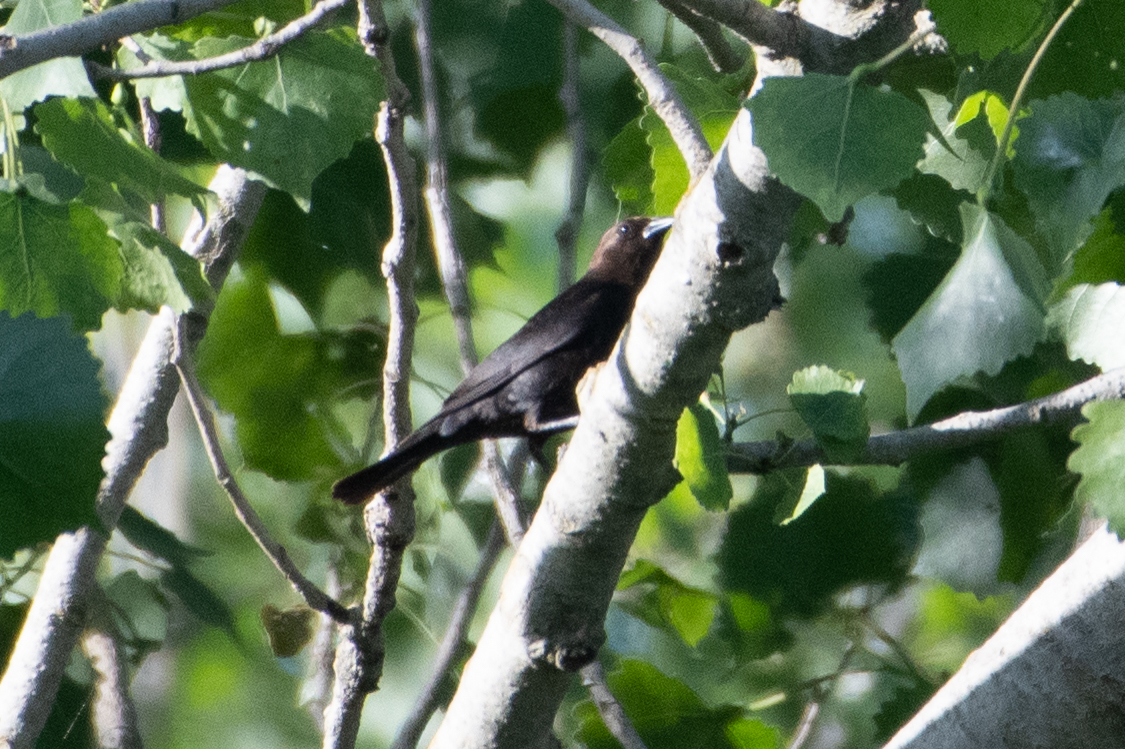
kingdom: Animalia
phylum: Chordata
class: Aves
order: Passeriformes
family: Icteridae
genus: Molothrus
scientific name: Molothrus ater
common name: Brown-headed cowbird
